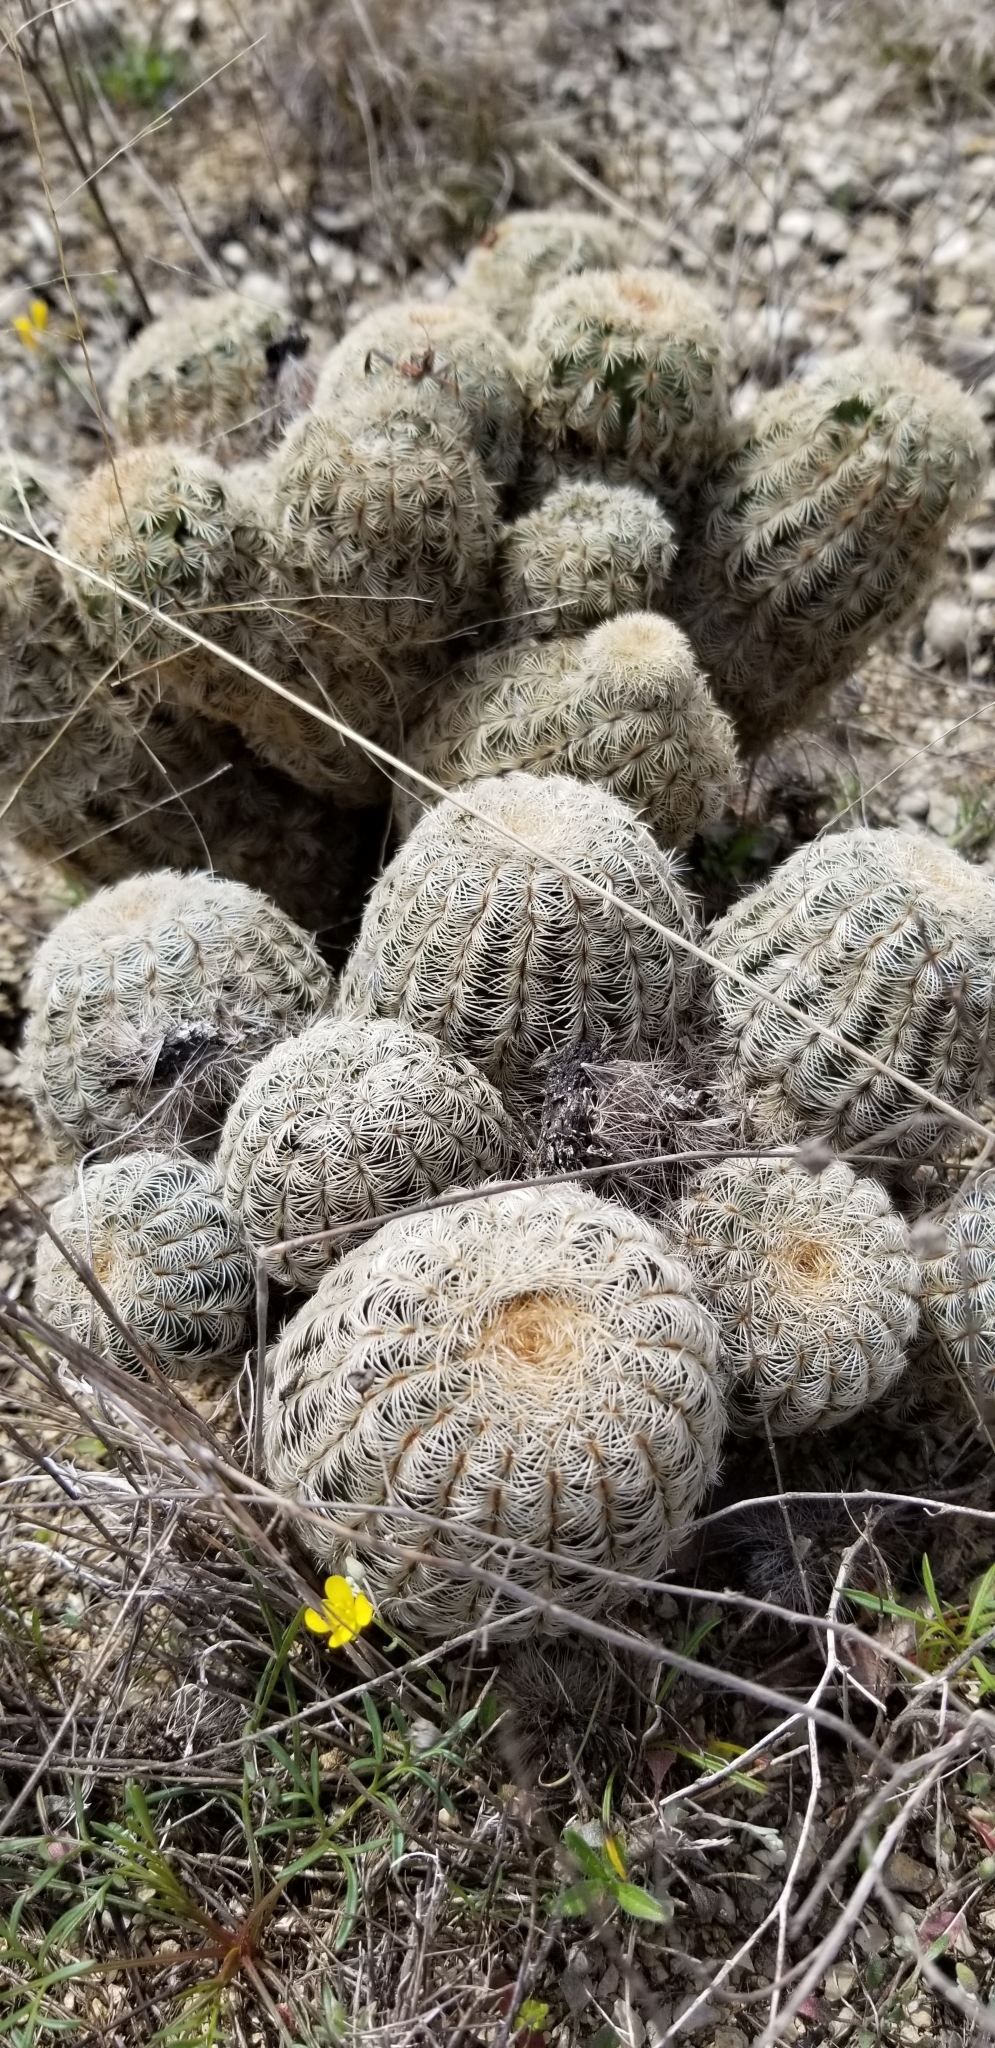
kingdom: Plantae
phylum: Tracheophyta
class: Magnoliopsida
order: Caryophyllales
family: Cactaceae
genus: Echinocereus
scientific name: Echinocereus reichenbachii
